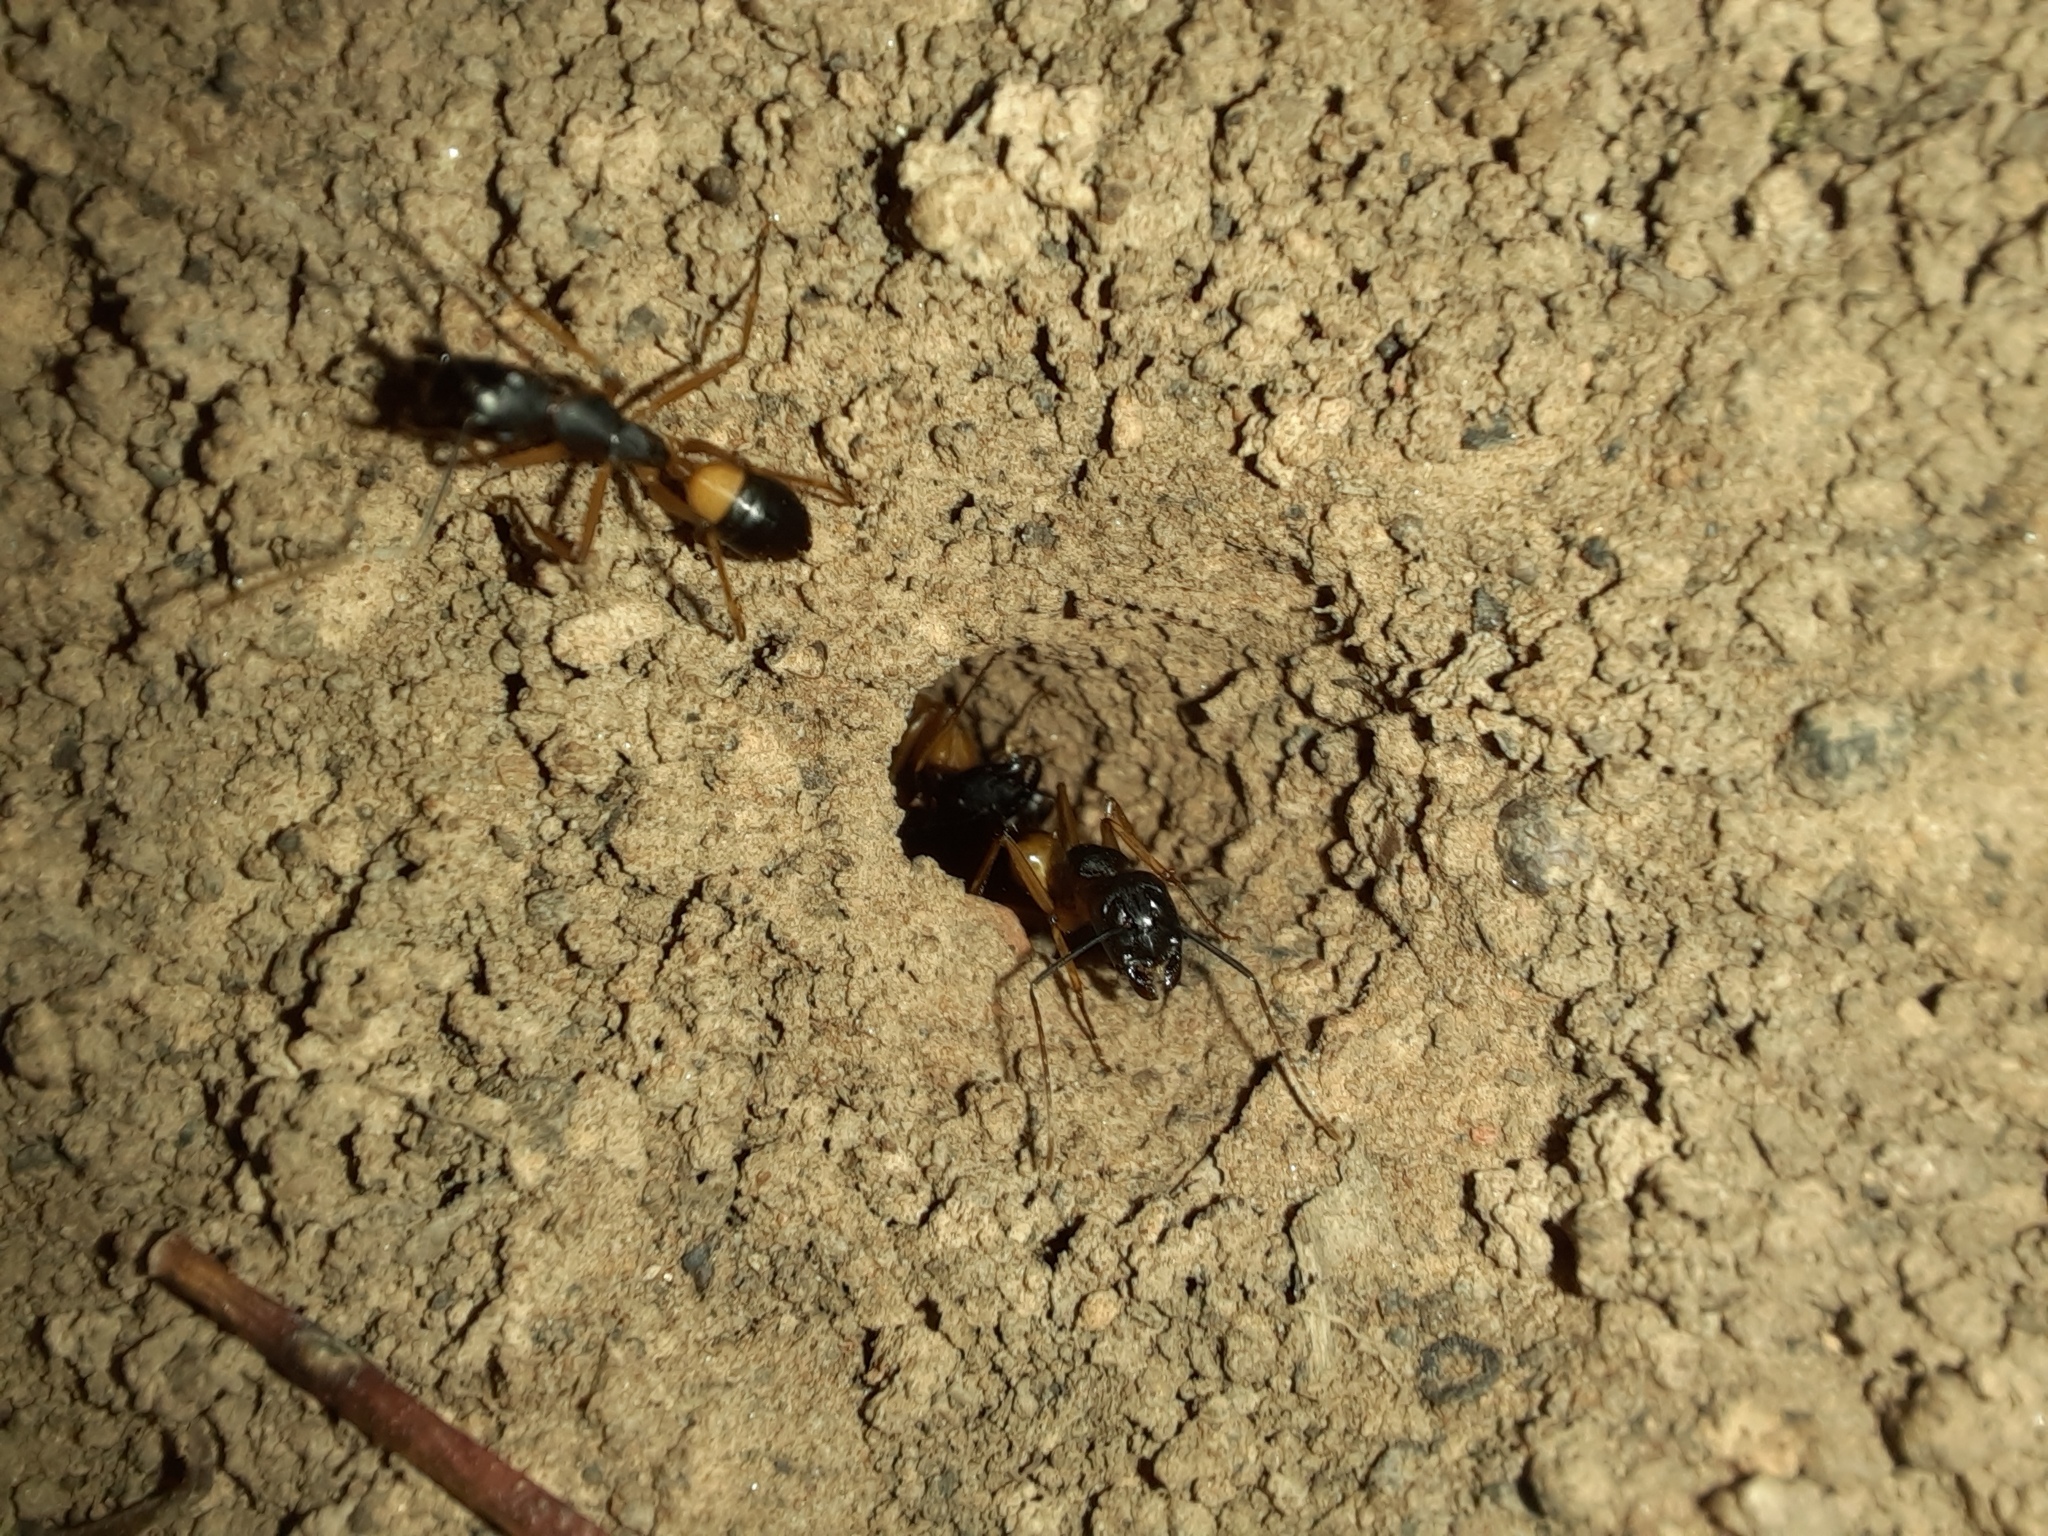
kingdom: Animalia
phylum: Arthropoda
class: Insecta
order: Hymenoptera
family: Formicidae
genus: Camponotus
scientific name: Camponotus consobrinus
